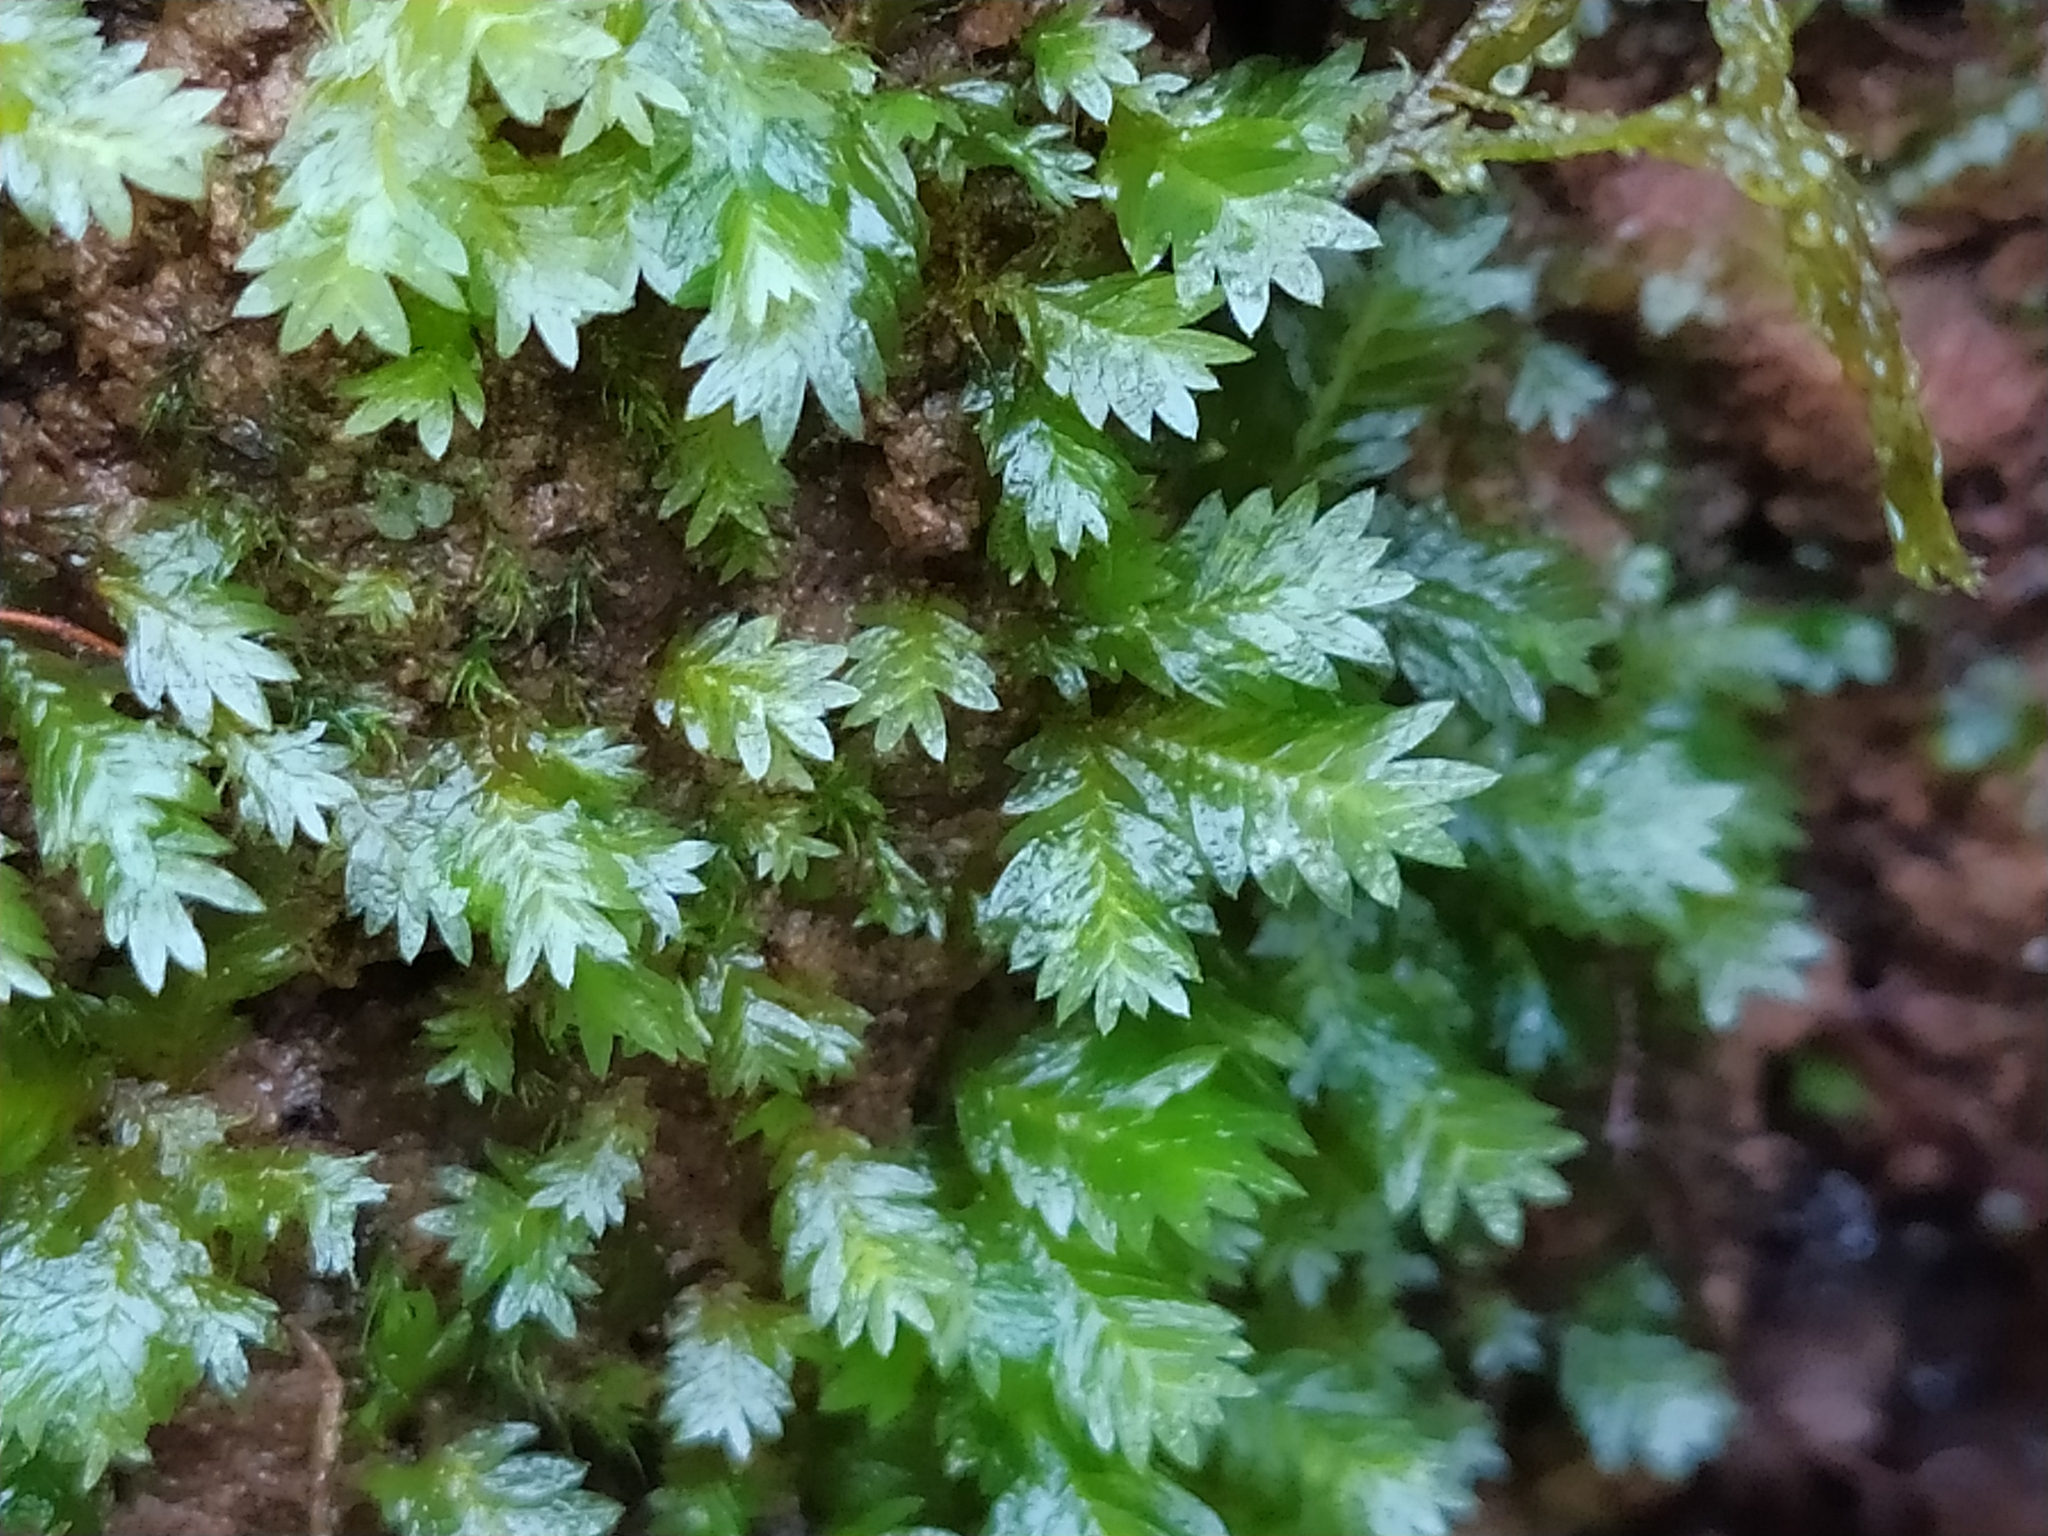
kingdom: Plantae
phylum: Bryophyta
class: Bryopsida
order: Dicranales
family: Fissidentaceae
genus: Fissidens
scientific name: Fissidens taxifolius
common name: Yew-leaved pocket moss
